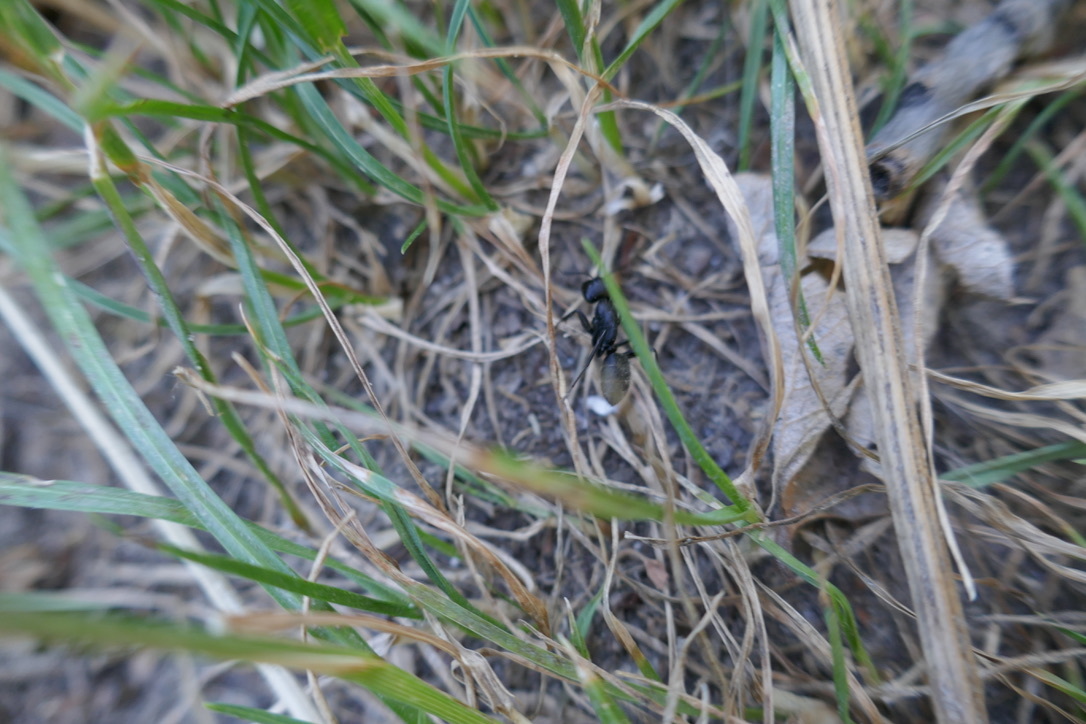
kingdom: Animalia
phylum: Arthropoda
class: Insecta
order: Hymenoptera
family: Formicidae
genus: Camponotus
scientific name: Camponotus vagus
